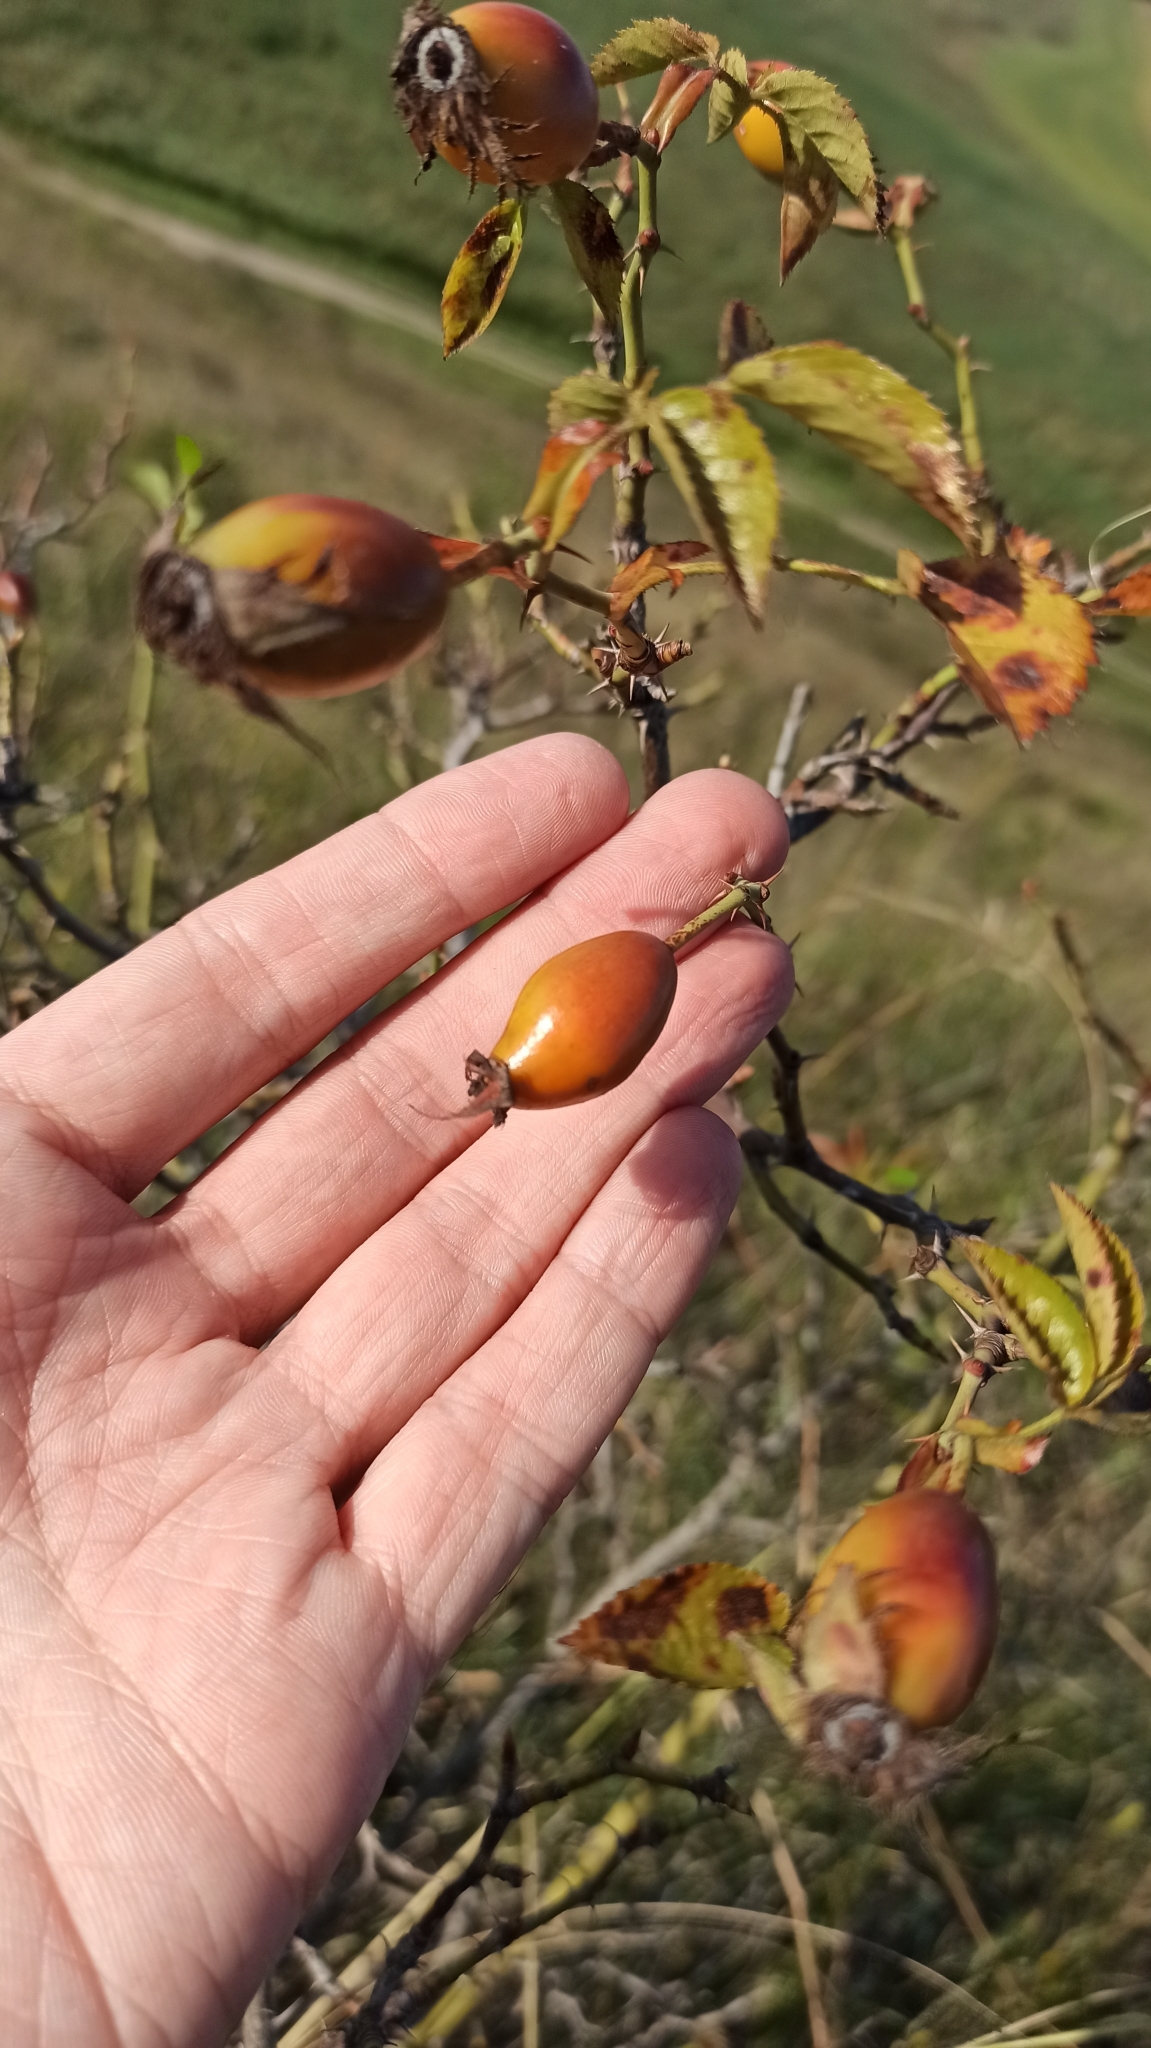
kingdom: Plantae
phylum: Tracheophyta
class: Magnoliopsida
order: Rosales
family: Rosaceae
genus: Rosa
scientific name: Rosa
